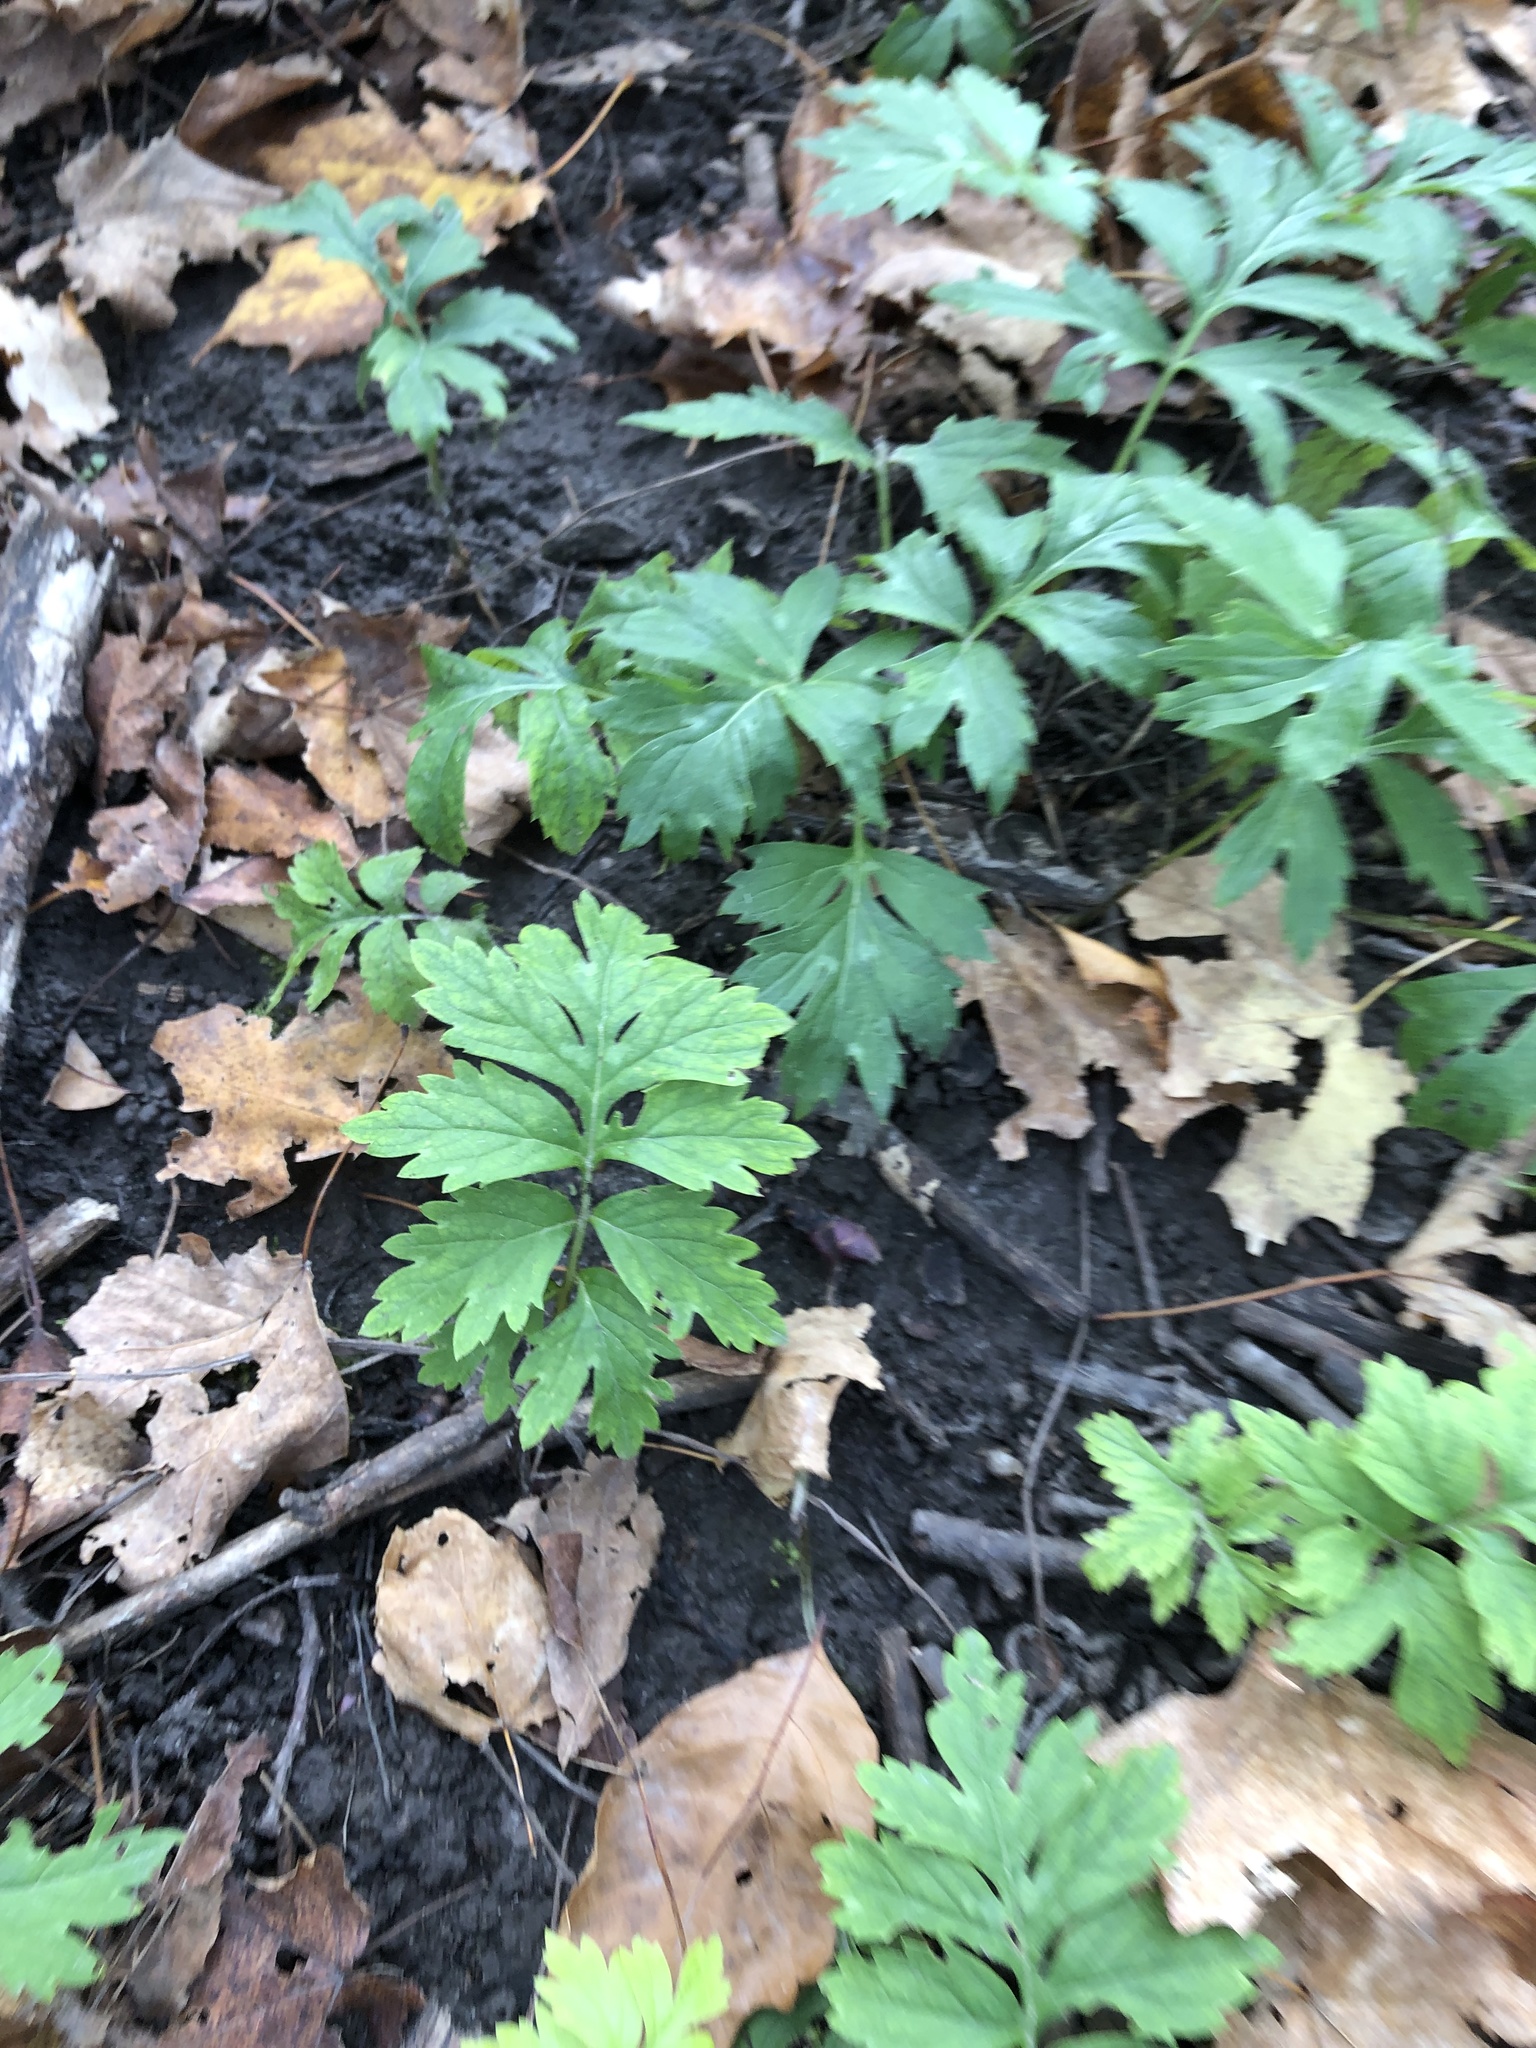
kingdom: Plantae
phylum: Tracheophyta
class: Magnoliopsida
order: Boraginales
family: Hydrophyllaceae
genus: Hydrophyllum
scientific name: Hydrophyllum virginianum
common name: Virginia waterleaf
